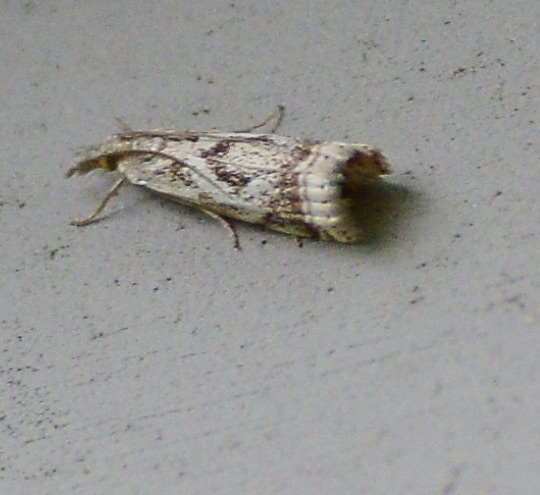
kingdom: Animalia
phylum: Arthropoda
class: Insecta
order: Lepidoptera
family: Crambidae
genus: Microcrambus
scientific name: Microcrambus elegans
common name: Elegant grass-veneer
